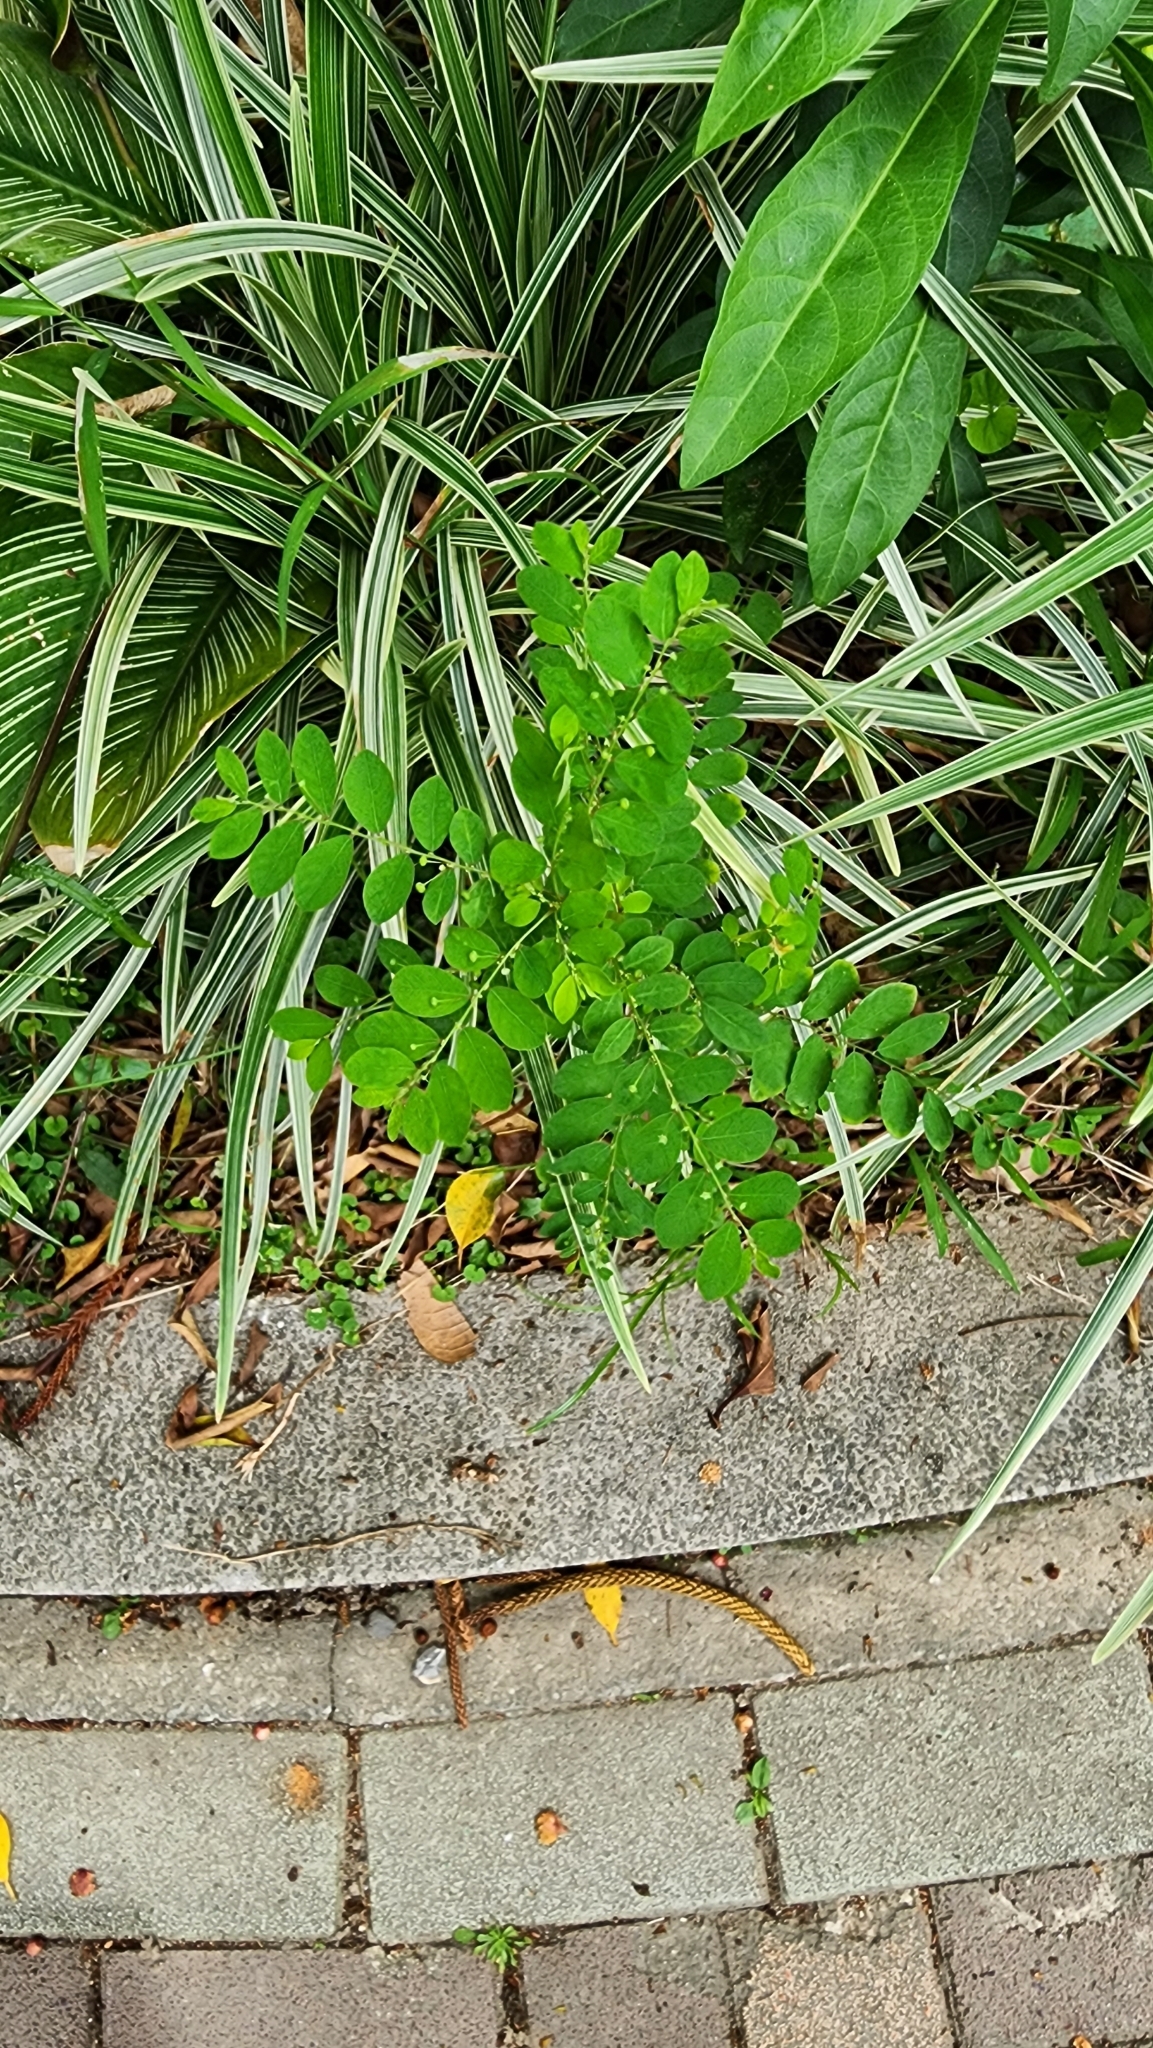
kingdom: Plantae
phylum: Tracheophyta
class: Magnoliopsida
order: Malpighiales
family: Phyllanthaceae
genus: Phyllanthus
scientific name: Phyllanthus tenellus
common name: Mascarene island leaf-flower
